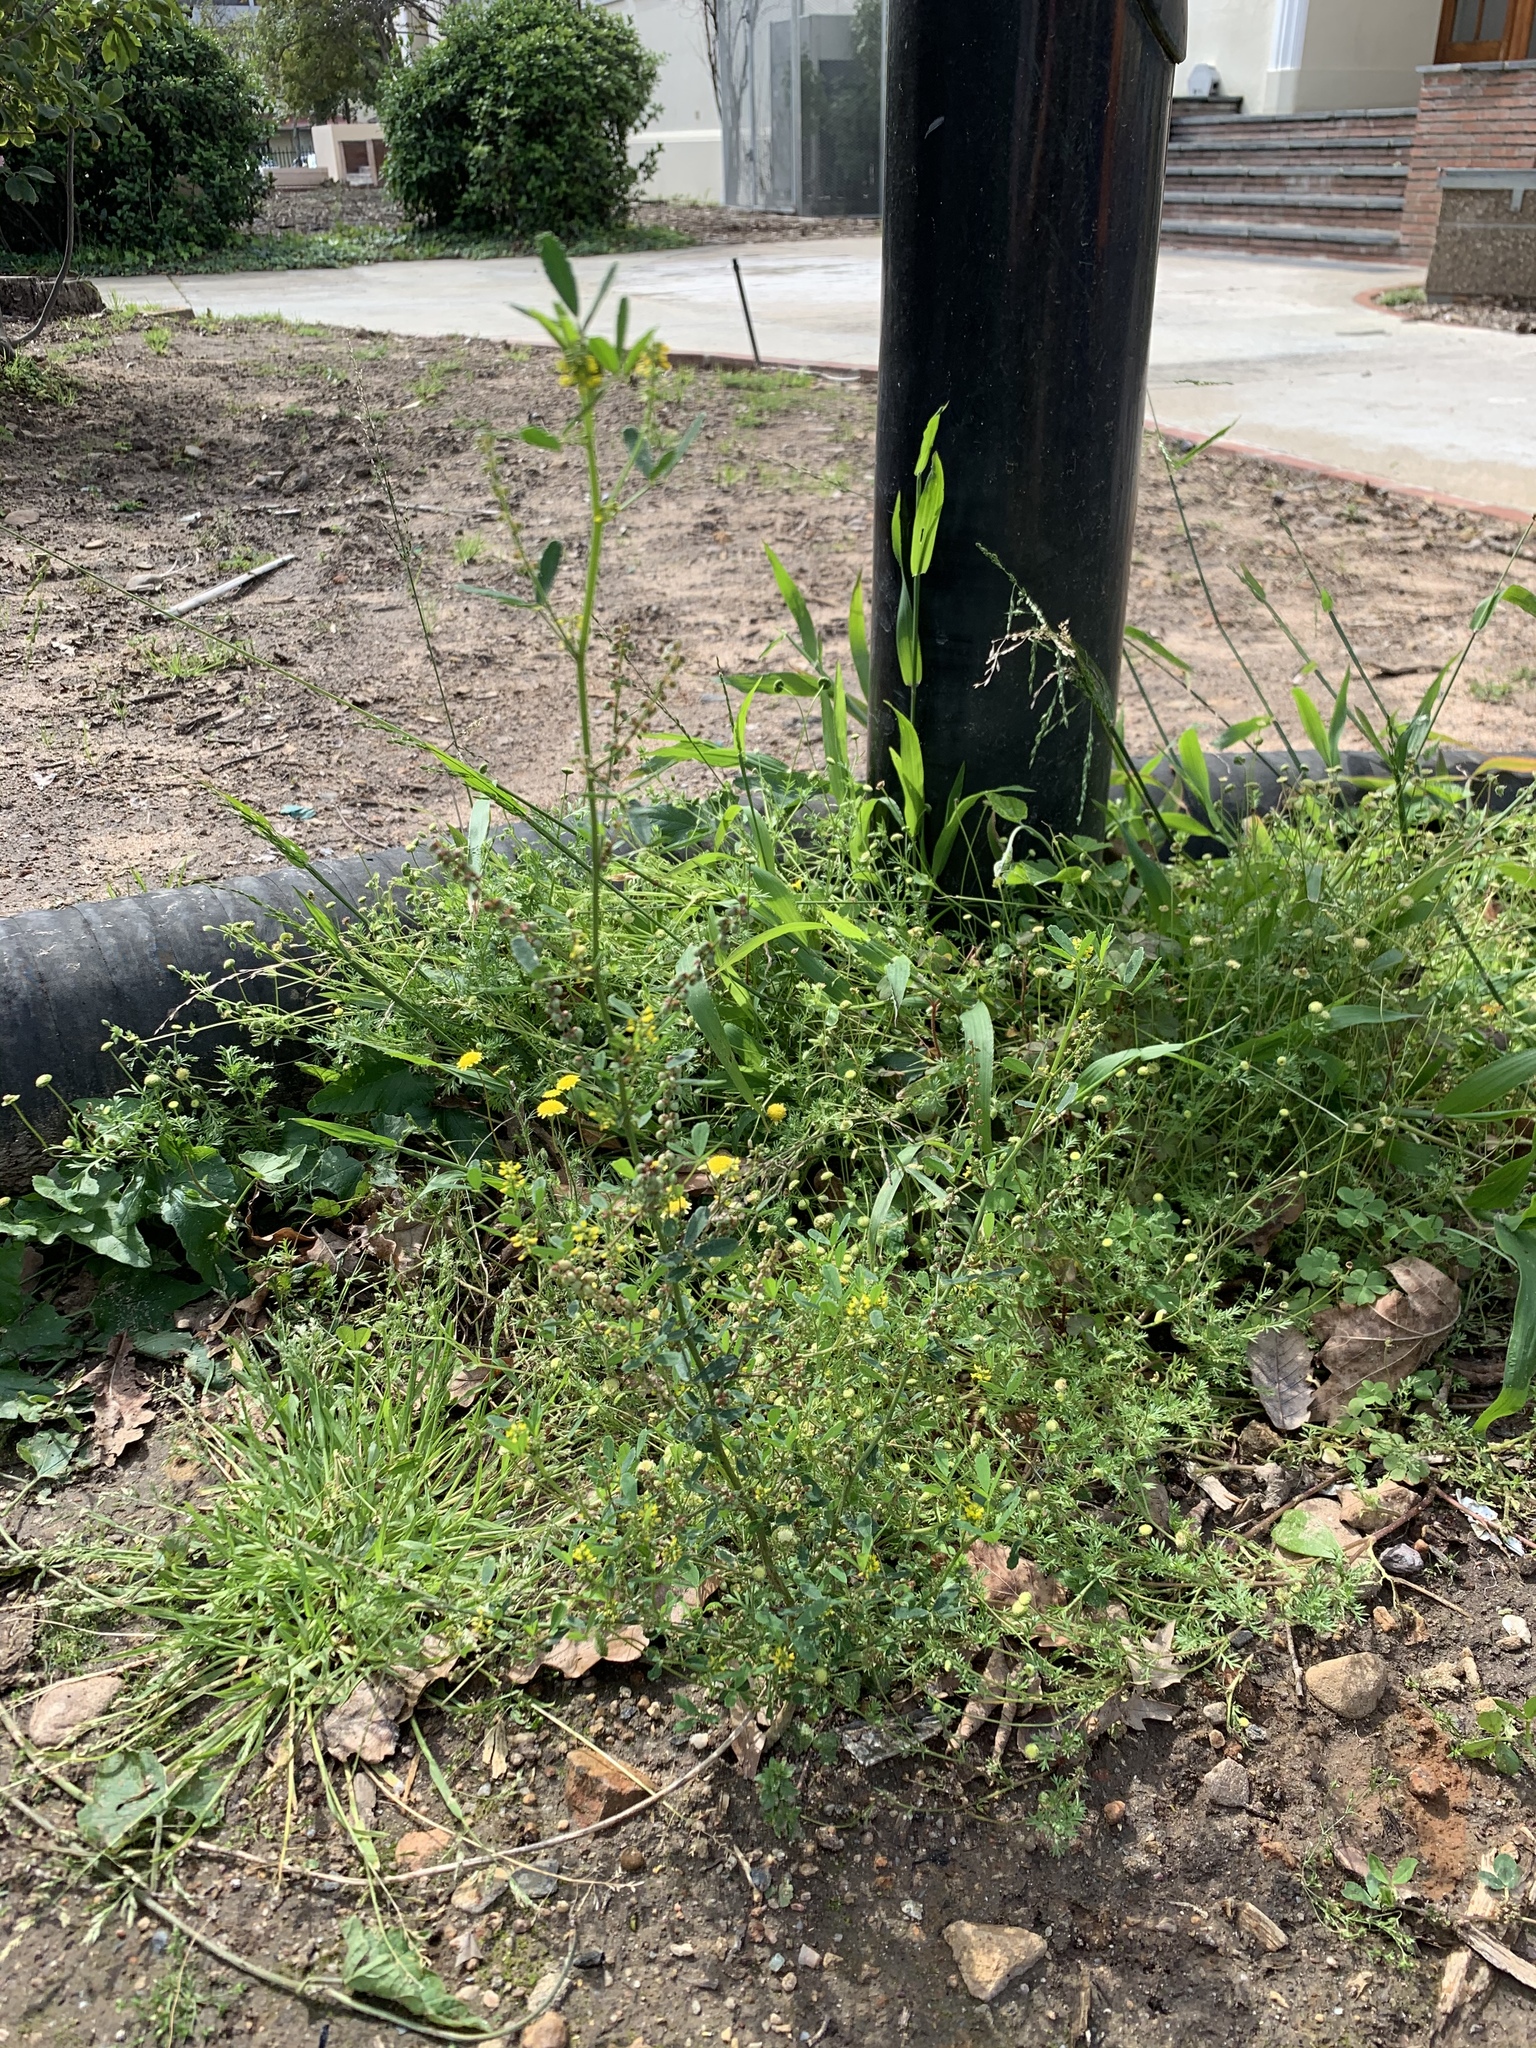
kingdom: Plantae
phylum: Tracheophyta
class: Magnoliopsida
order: Fabales
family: Fabaceae
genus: Melilotus
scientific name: Melilotus indicus
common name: Small melilot
